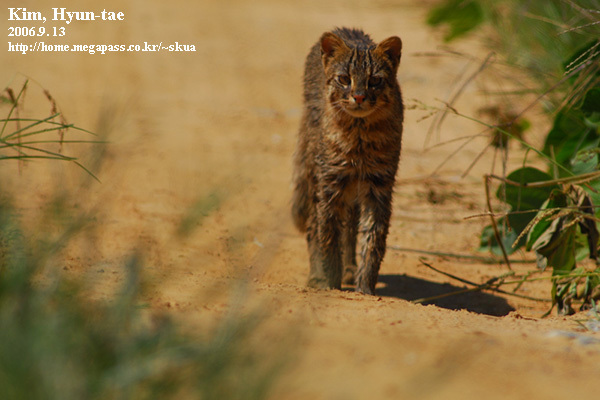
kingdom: Animalia
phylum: Chordata
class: Mammalia
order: Carnivora
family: Felidae
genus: Prionailurus
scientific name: Prionailurus bengalensis
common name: Leopard cat
